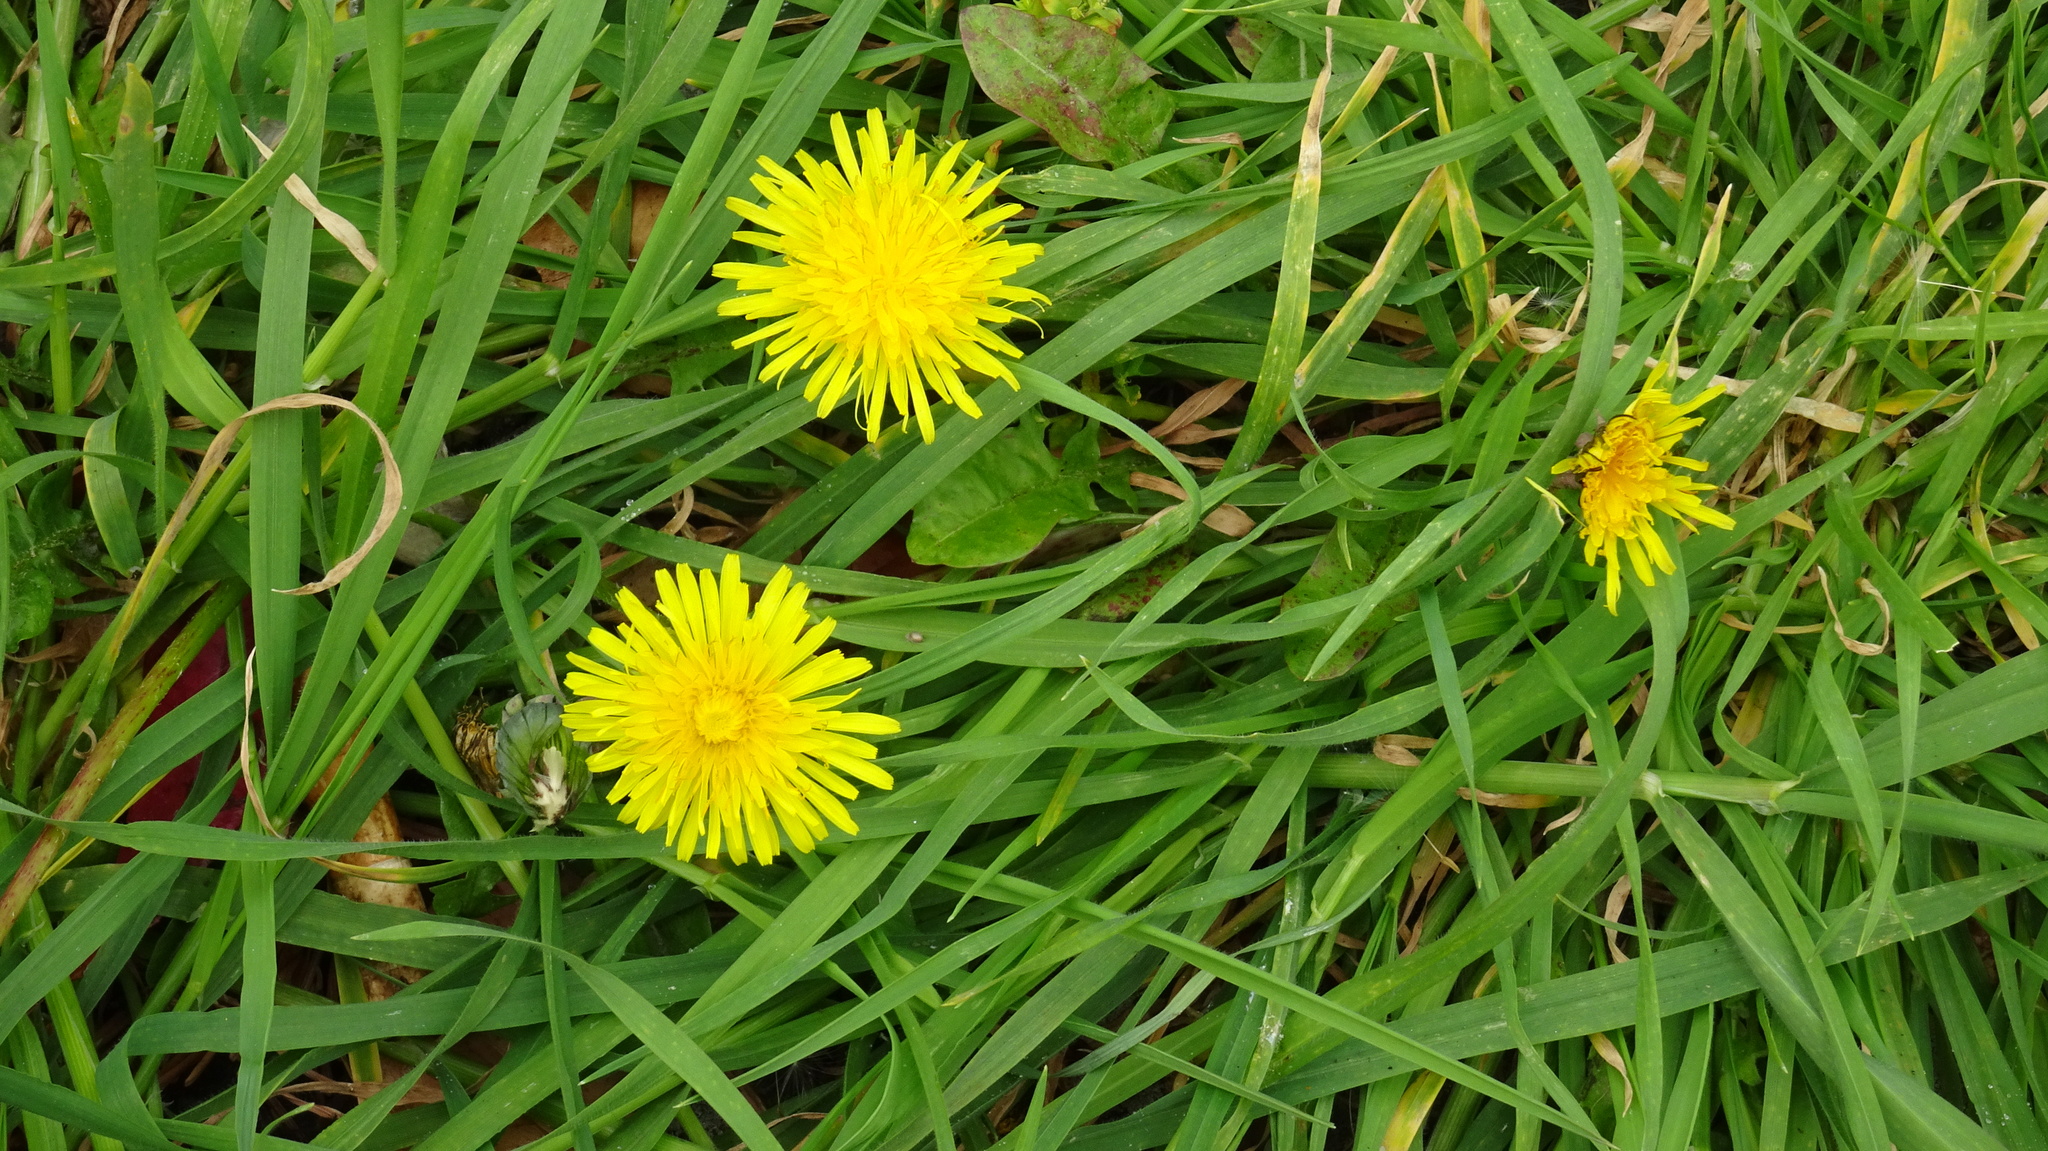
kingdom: Plantae
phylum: Tracheophyta
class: Magnoliopsida
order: Asterales
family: Asteraceae
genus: Taraxacum
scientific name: Taraxacum officinale
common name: Common dandelion
